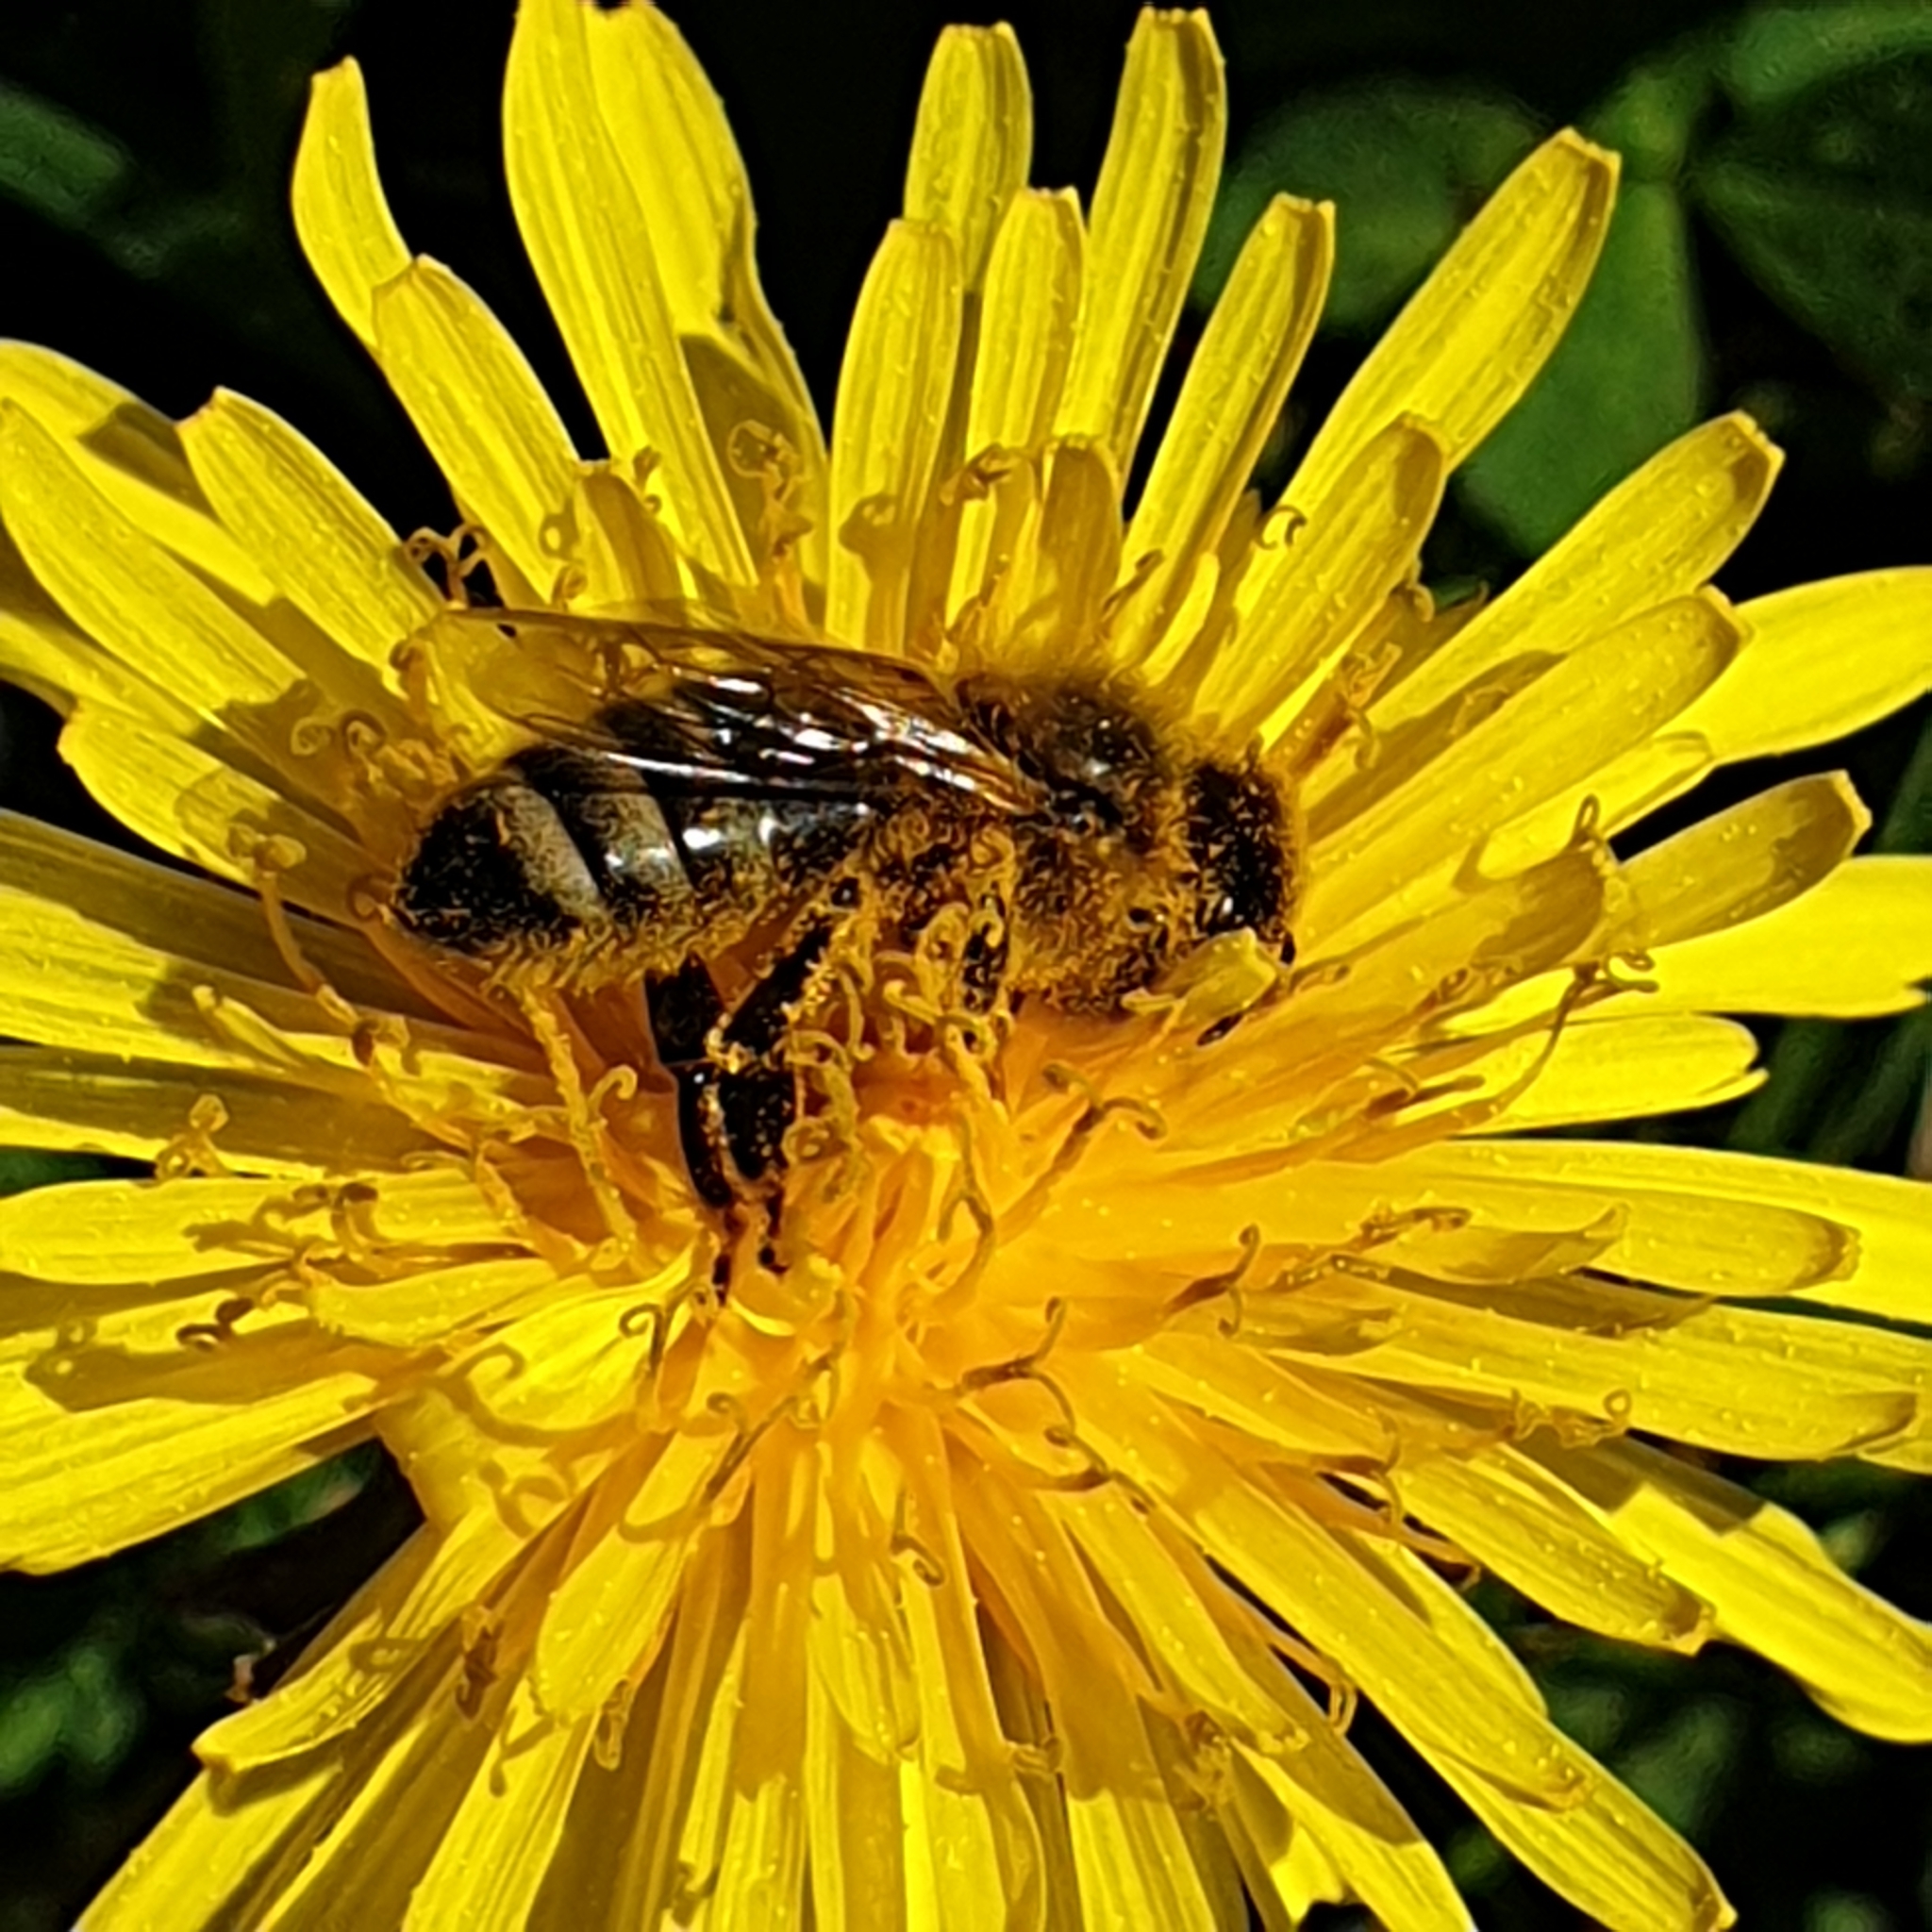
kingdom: Animalia
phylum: Arthropoda
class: Insecta
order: Hymenoptera
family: Apidae
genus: Apis
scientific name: Apis mellifera
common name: Honey bee
